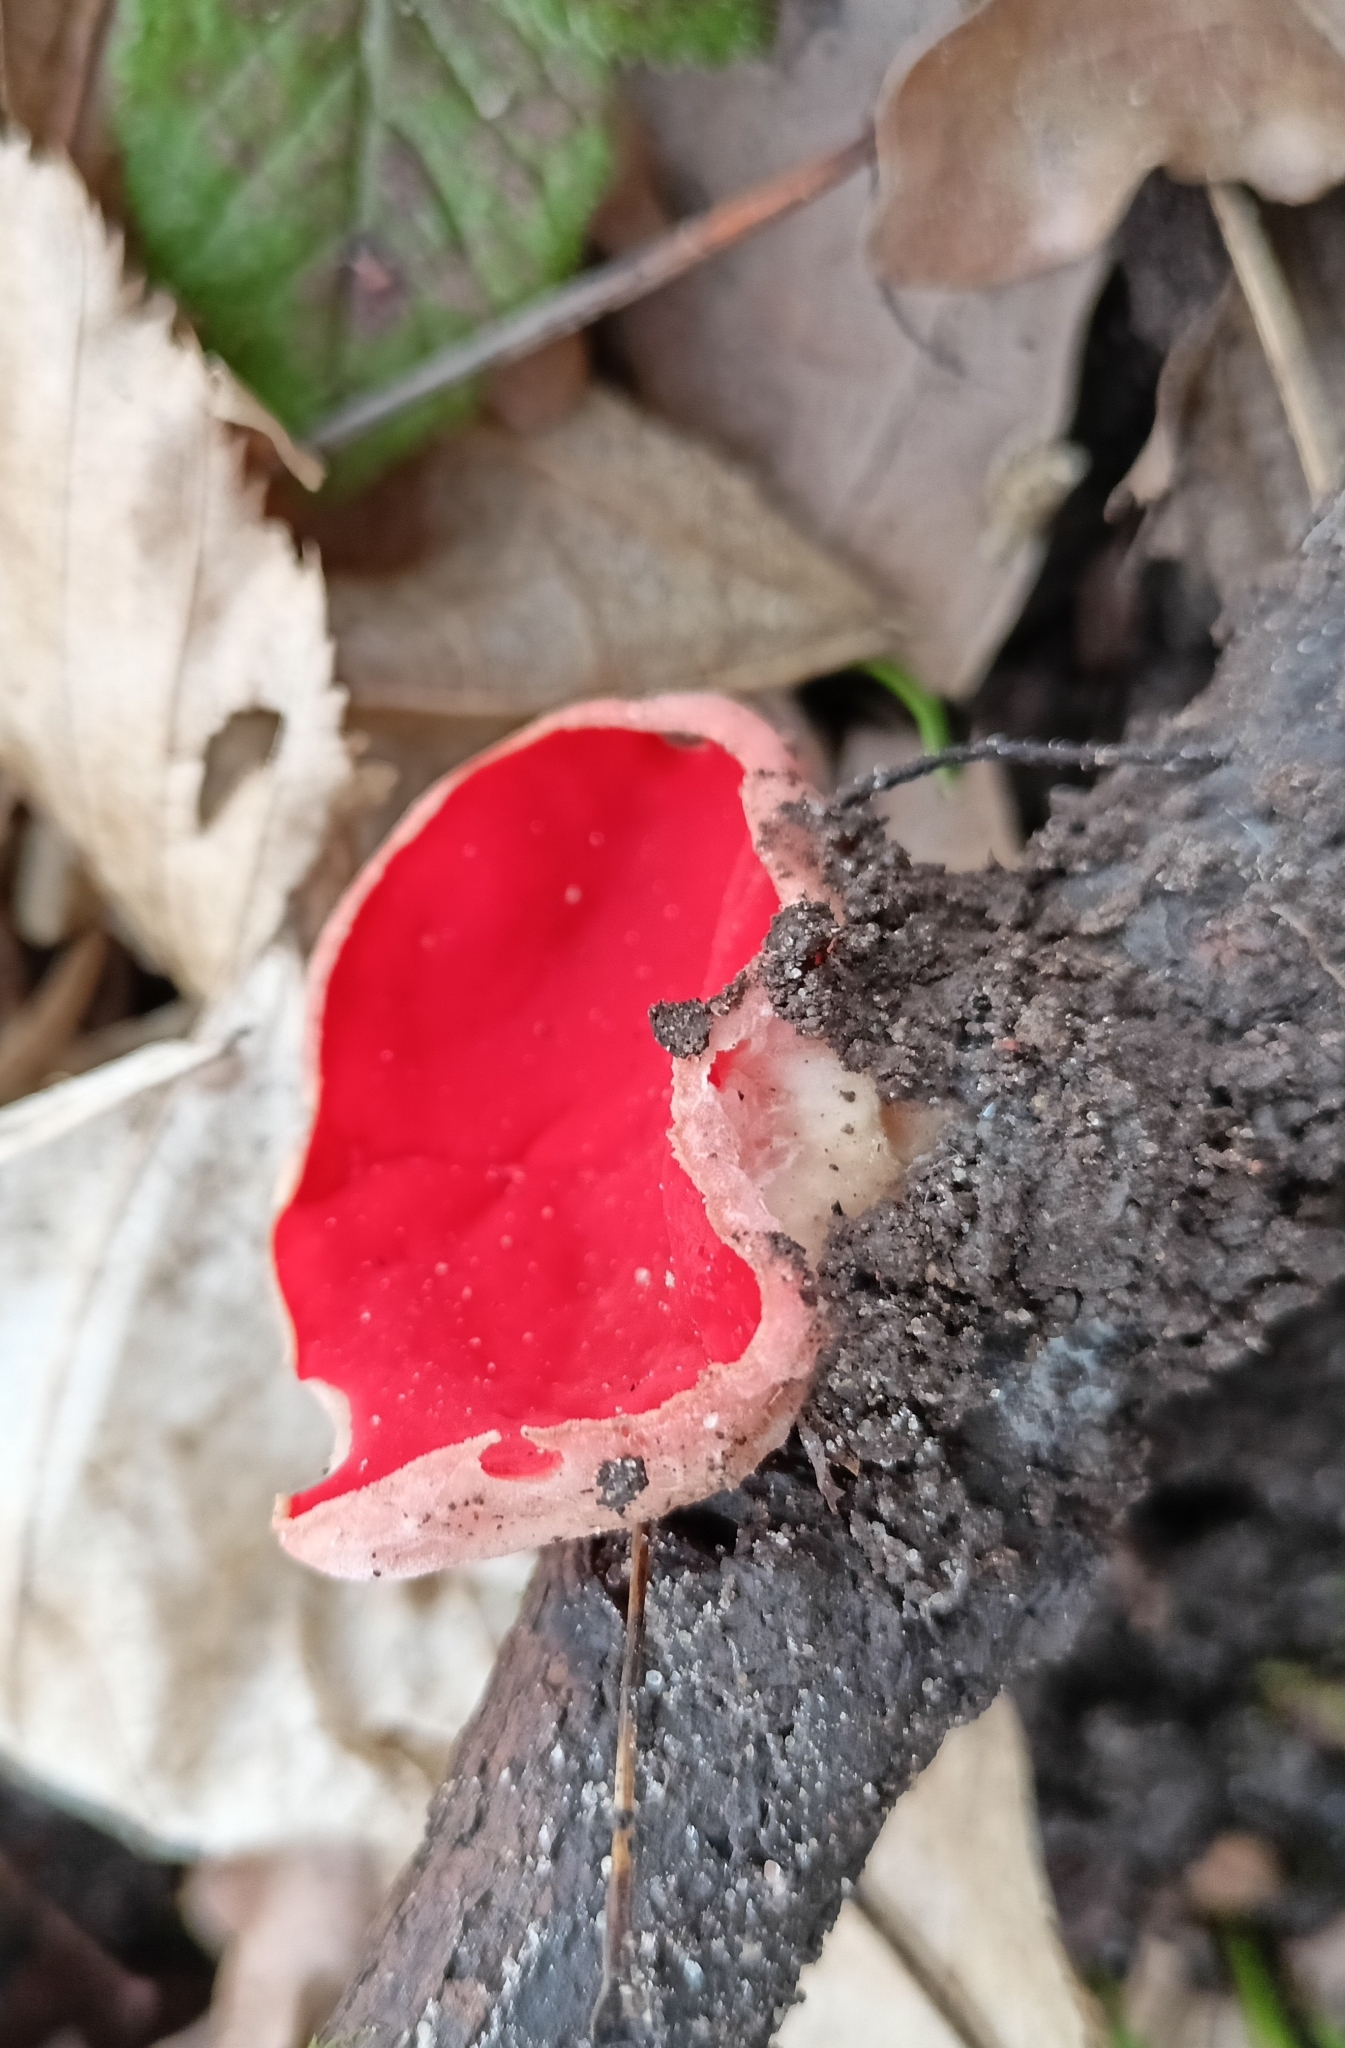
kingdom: Fungi
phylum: Ascomycota
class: Pezizomycetes
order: Pezizales
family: Sarcoscyphaceae
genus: Sarcoscypha
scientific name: Sarcoscypha
